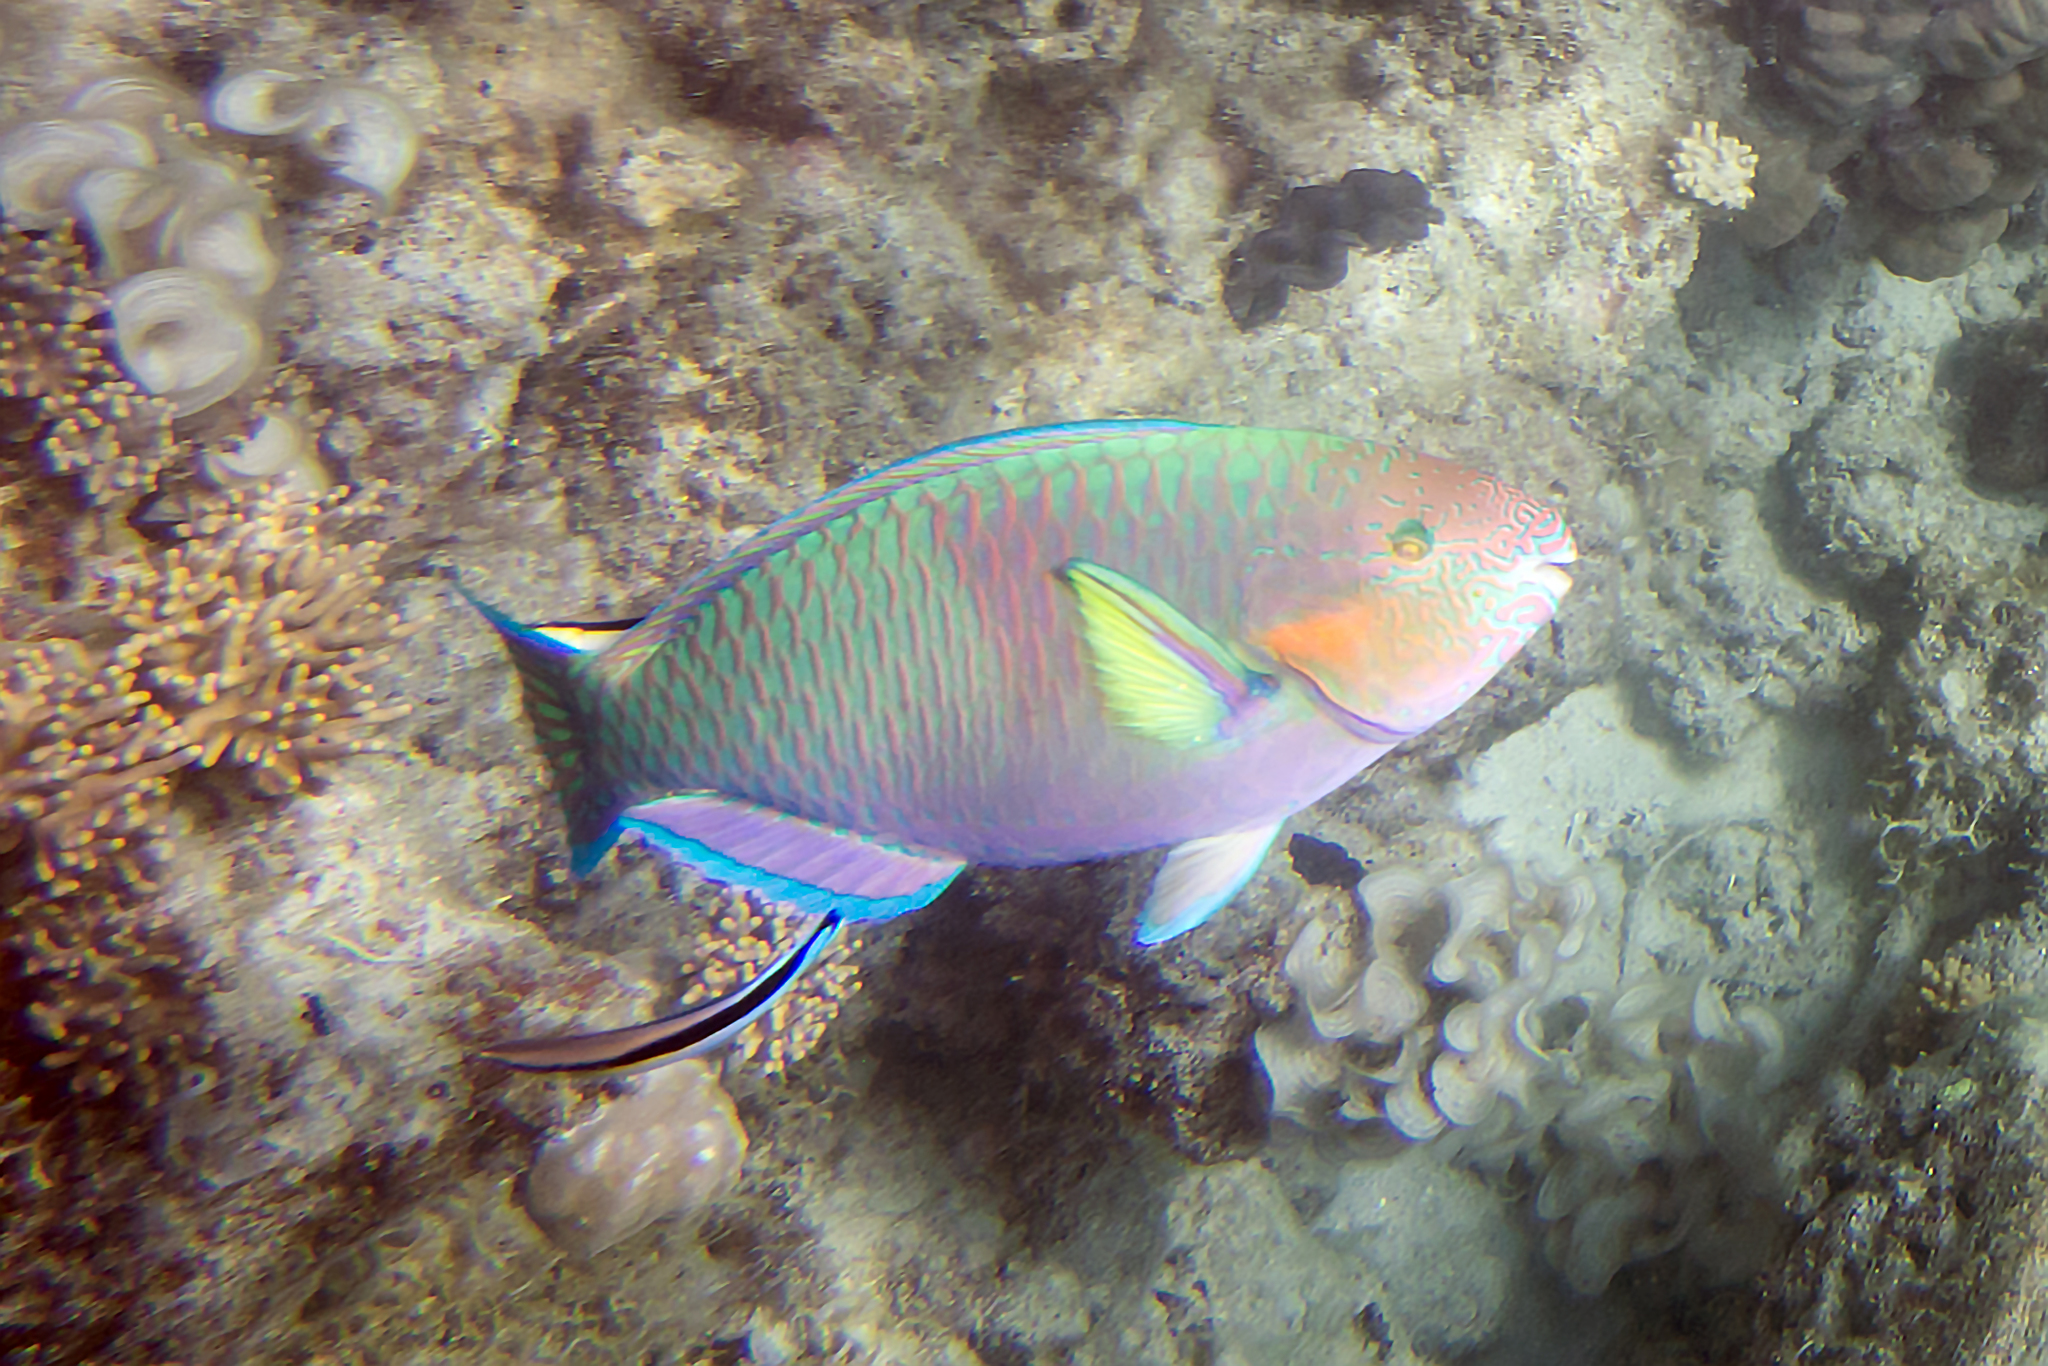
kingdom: Animalia
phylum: Chordata
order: Perciformes
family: Labridae
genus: Labroides
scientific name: Labroides dimidiatus
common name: Blue diesel wrasse
